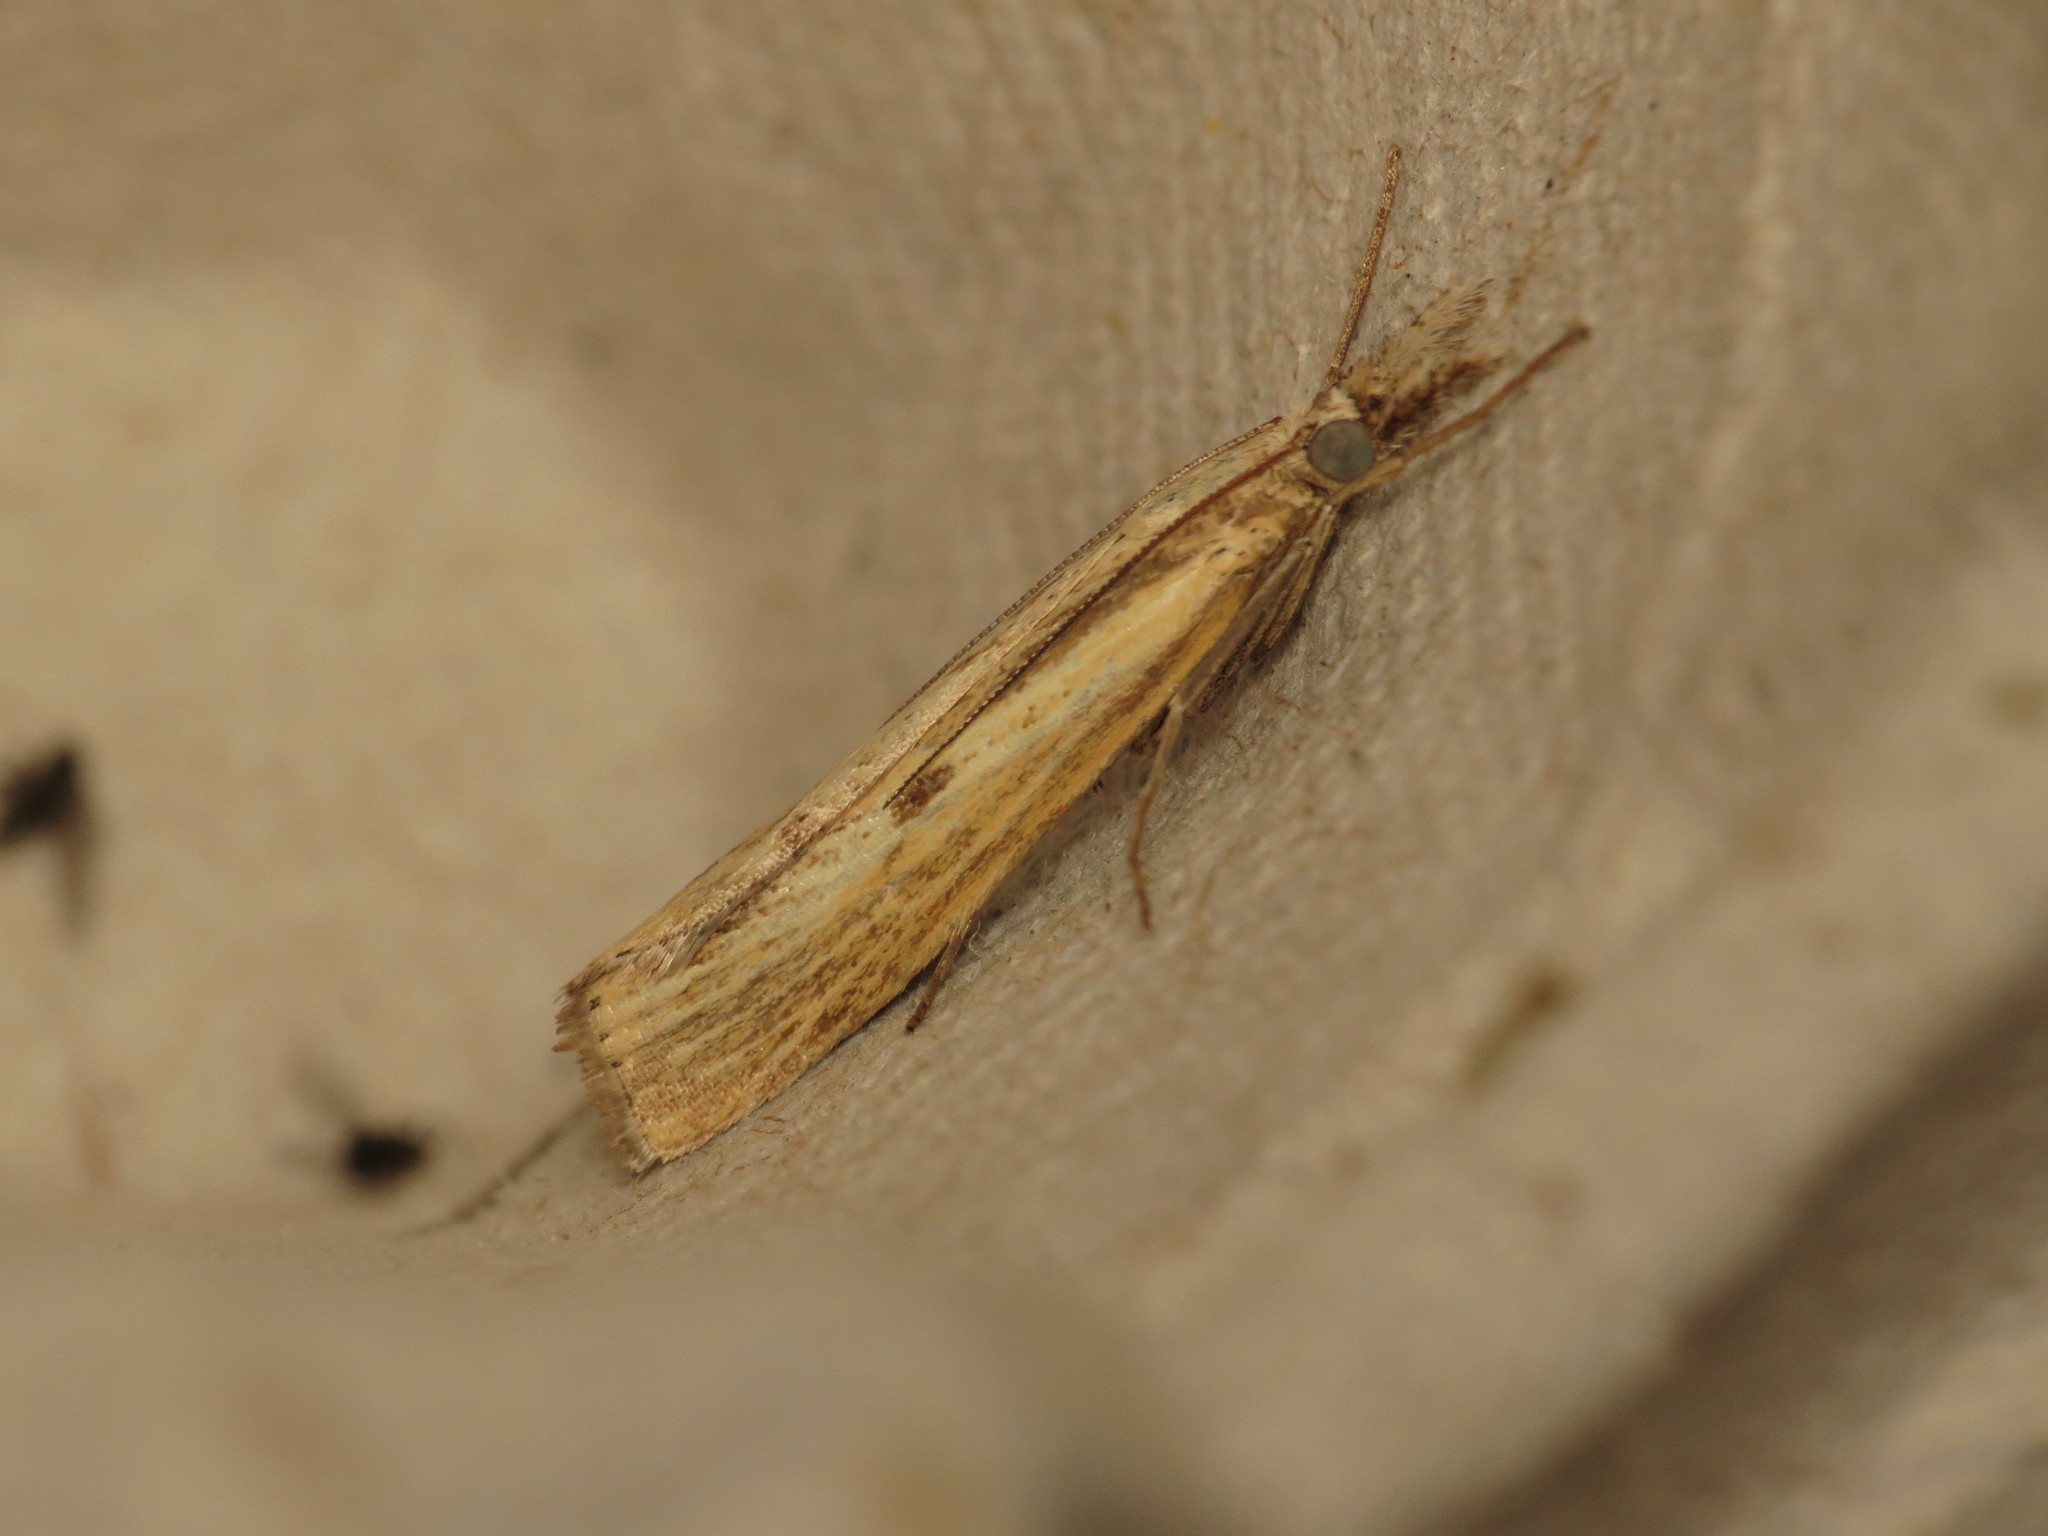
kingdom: Animalia
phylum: Arthropoda
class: Insecta
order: Lepidoptera
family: Crambidae
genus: Agriphila
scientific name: Agriphila inquinatella
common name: Barred grass-veneer
